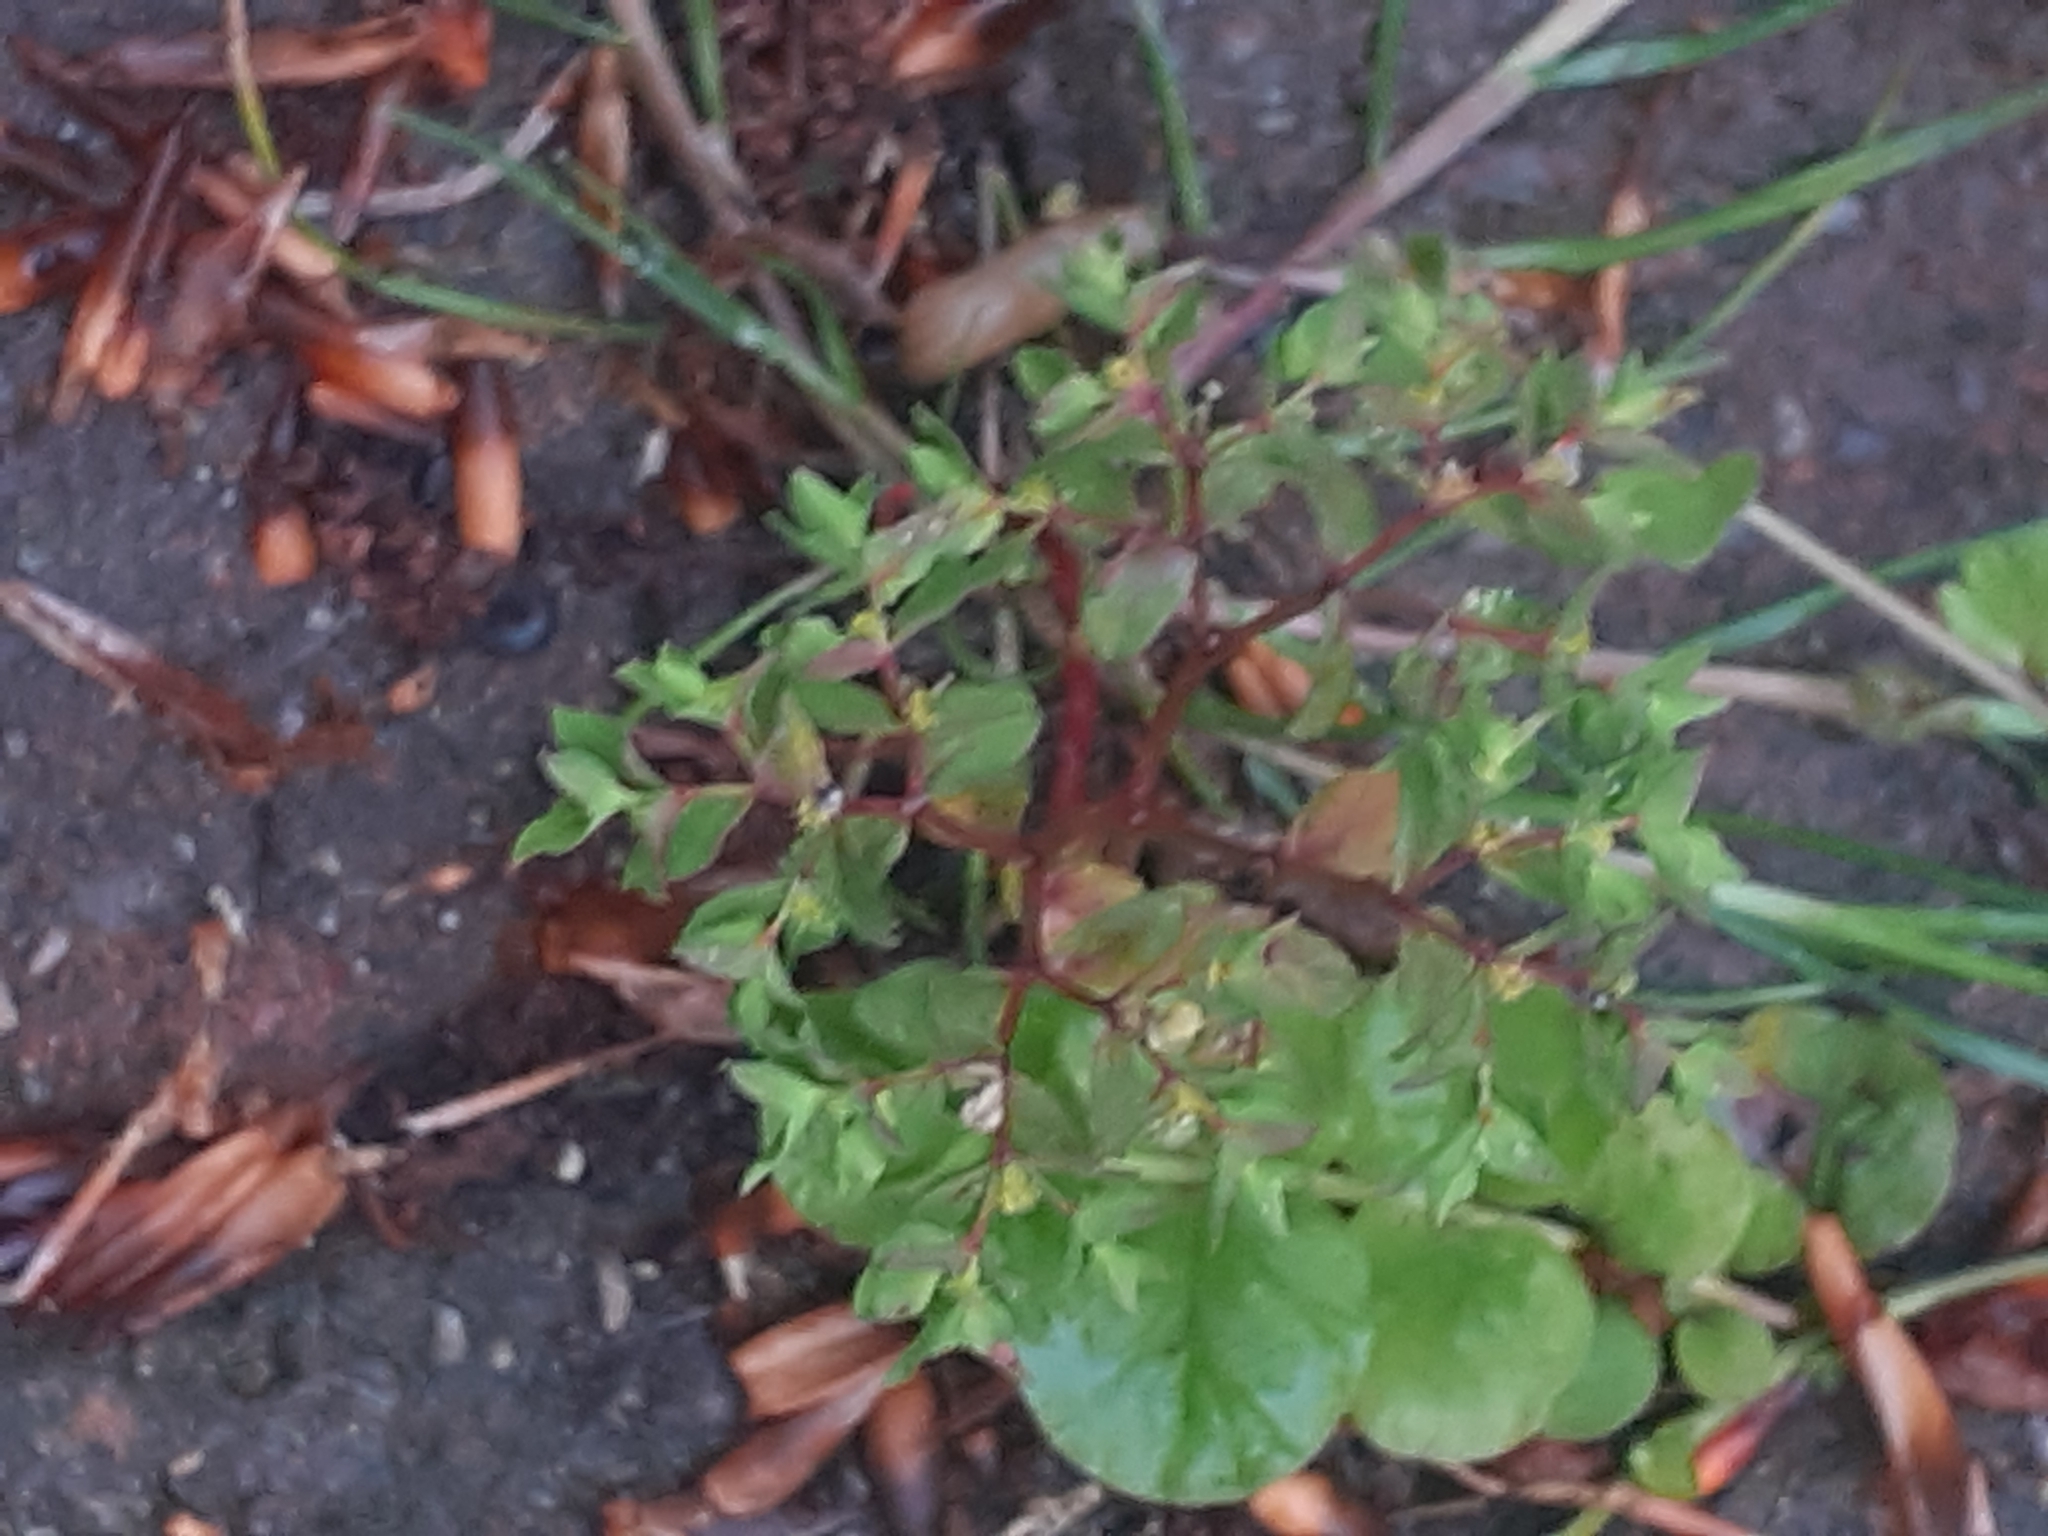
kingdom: Plantae
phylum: Tracheophyta
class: Magnoliopsida
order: Malpighiales
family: Euphorbiaceae
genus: Euphorbia
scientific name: Euphorbia peplus
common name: Petty spurge
